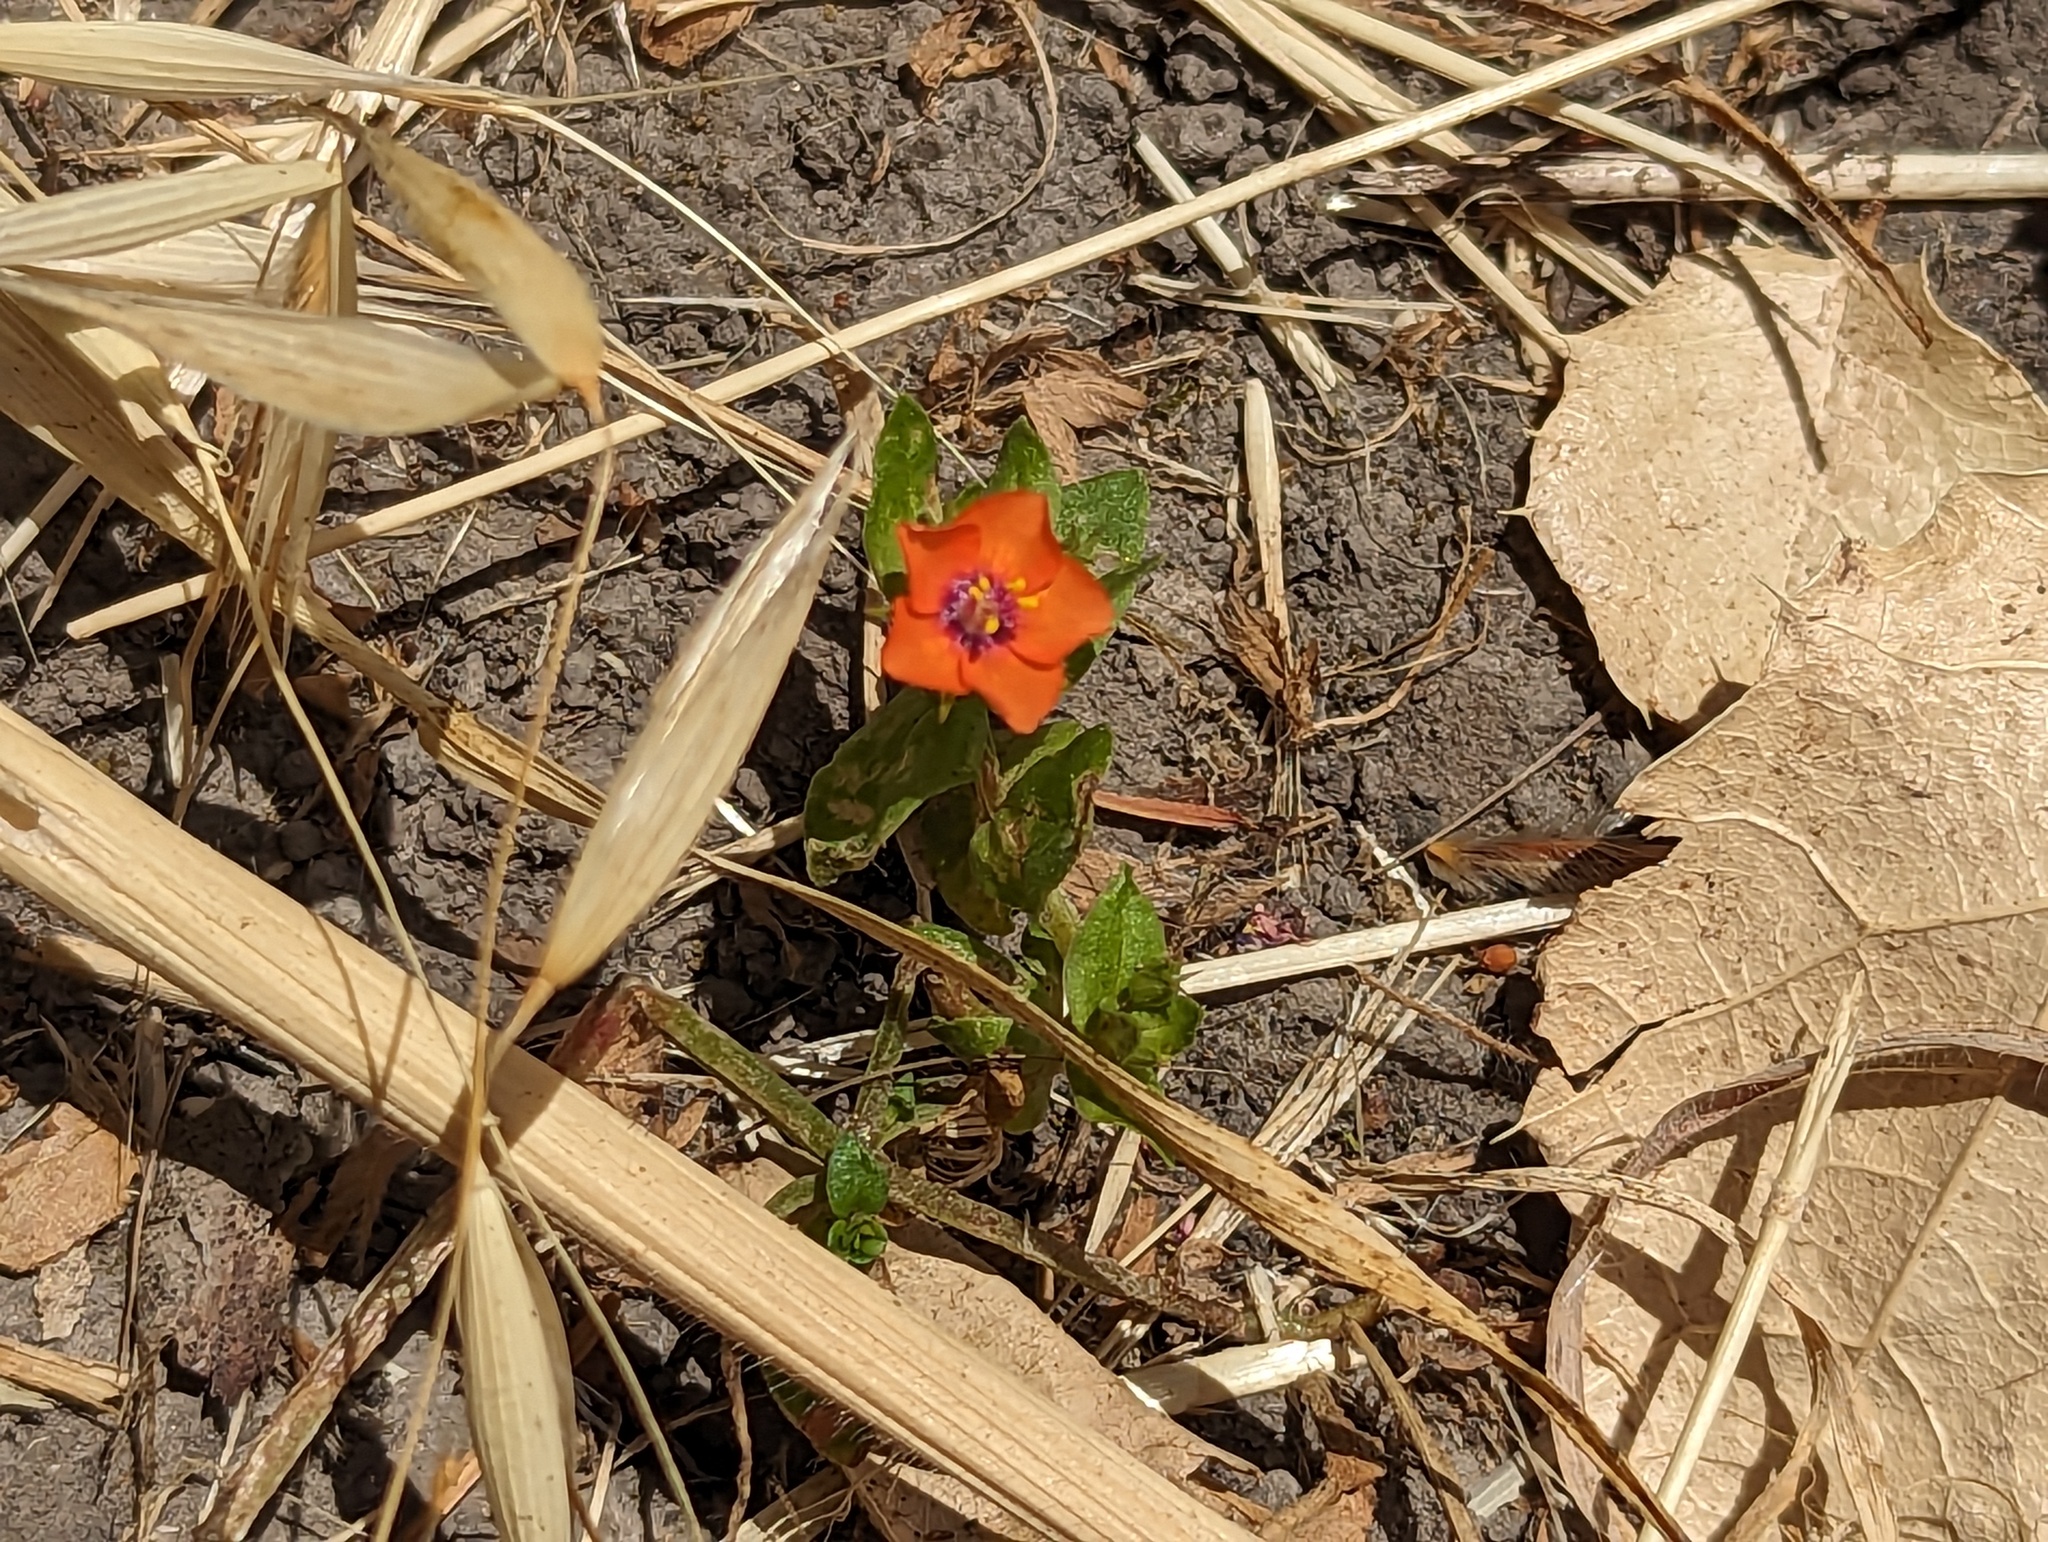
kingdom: Plantae
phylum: Tracheophyta
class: Magnoliopsida
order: Ericales
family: Primulaceae
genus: Lysimachia
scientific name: Lysimachia arvensis
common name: Scarlet pimpernel
